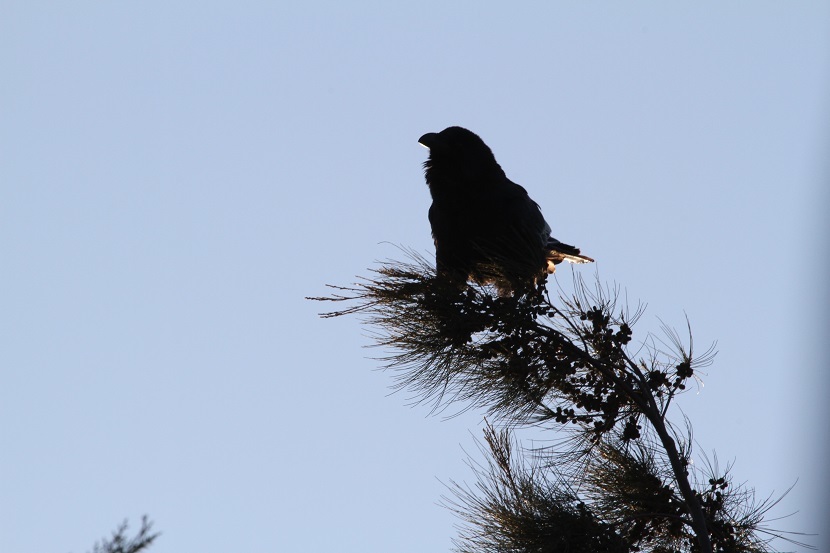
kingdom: Animalia
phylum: Chordata
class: Aves
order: Passeriformes
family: Corvidae
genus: Corvus
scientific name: Corvus corax
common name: Common raven
